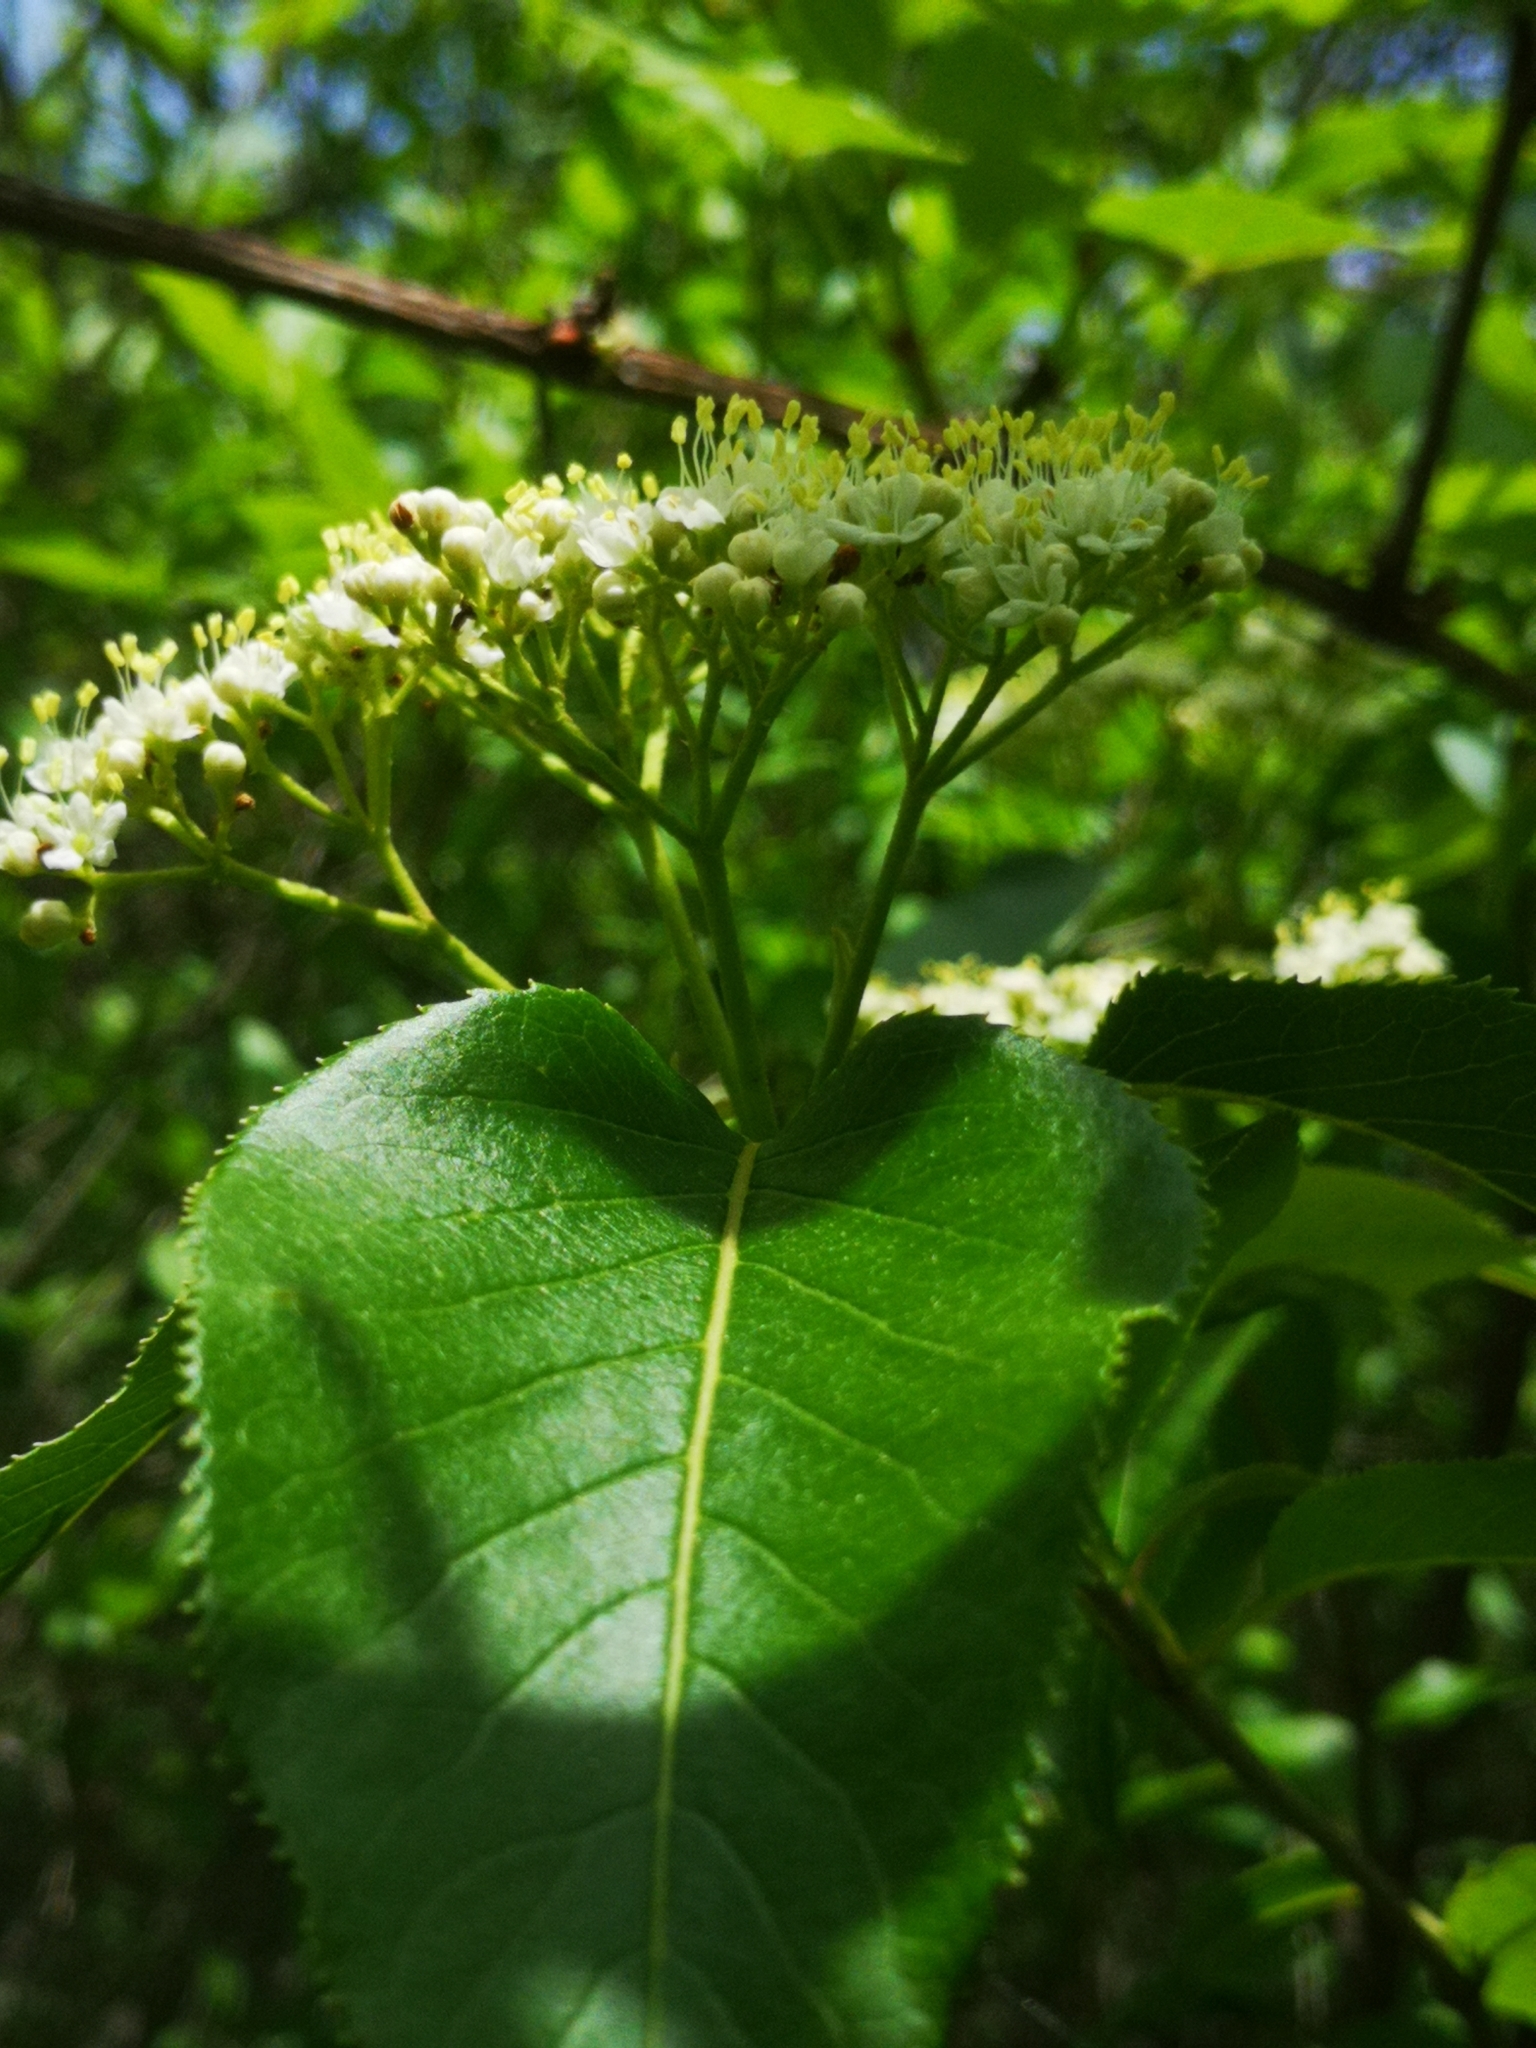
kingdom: Plantae
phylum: Tracheophyta
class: Magnoliopsida
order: Dipsacales
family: Viburnaceae
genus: Viburnum
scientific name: Viburnum lentago
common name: Black haw
